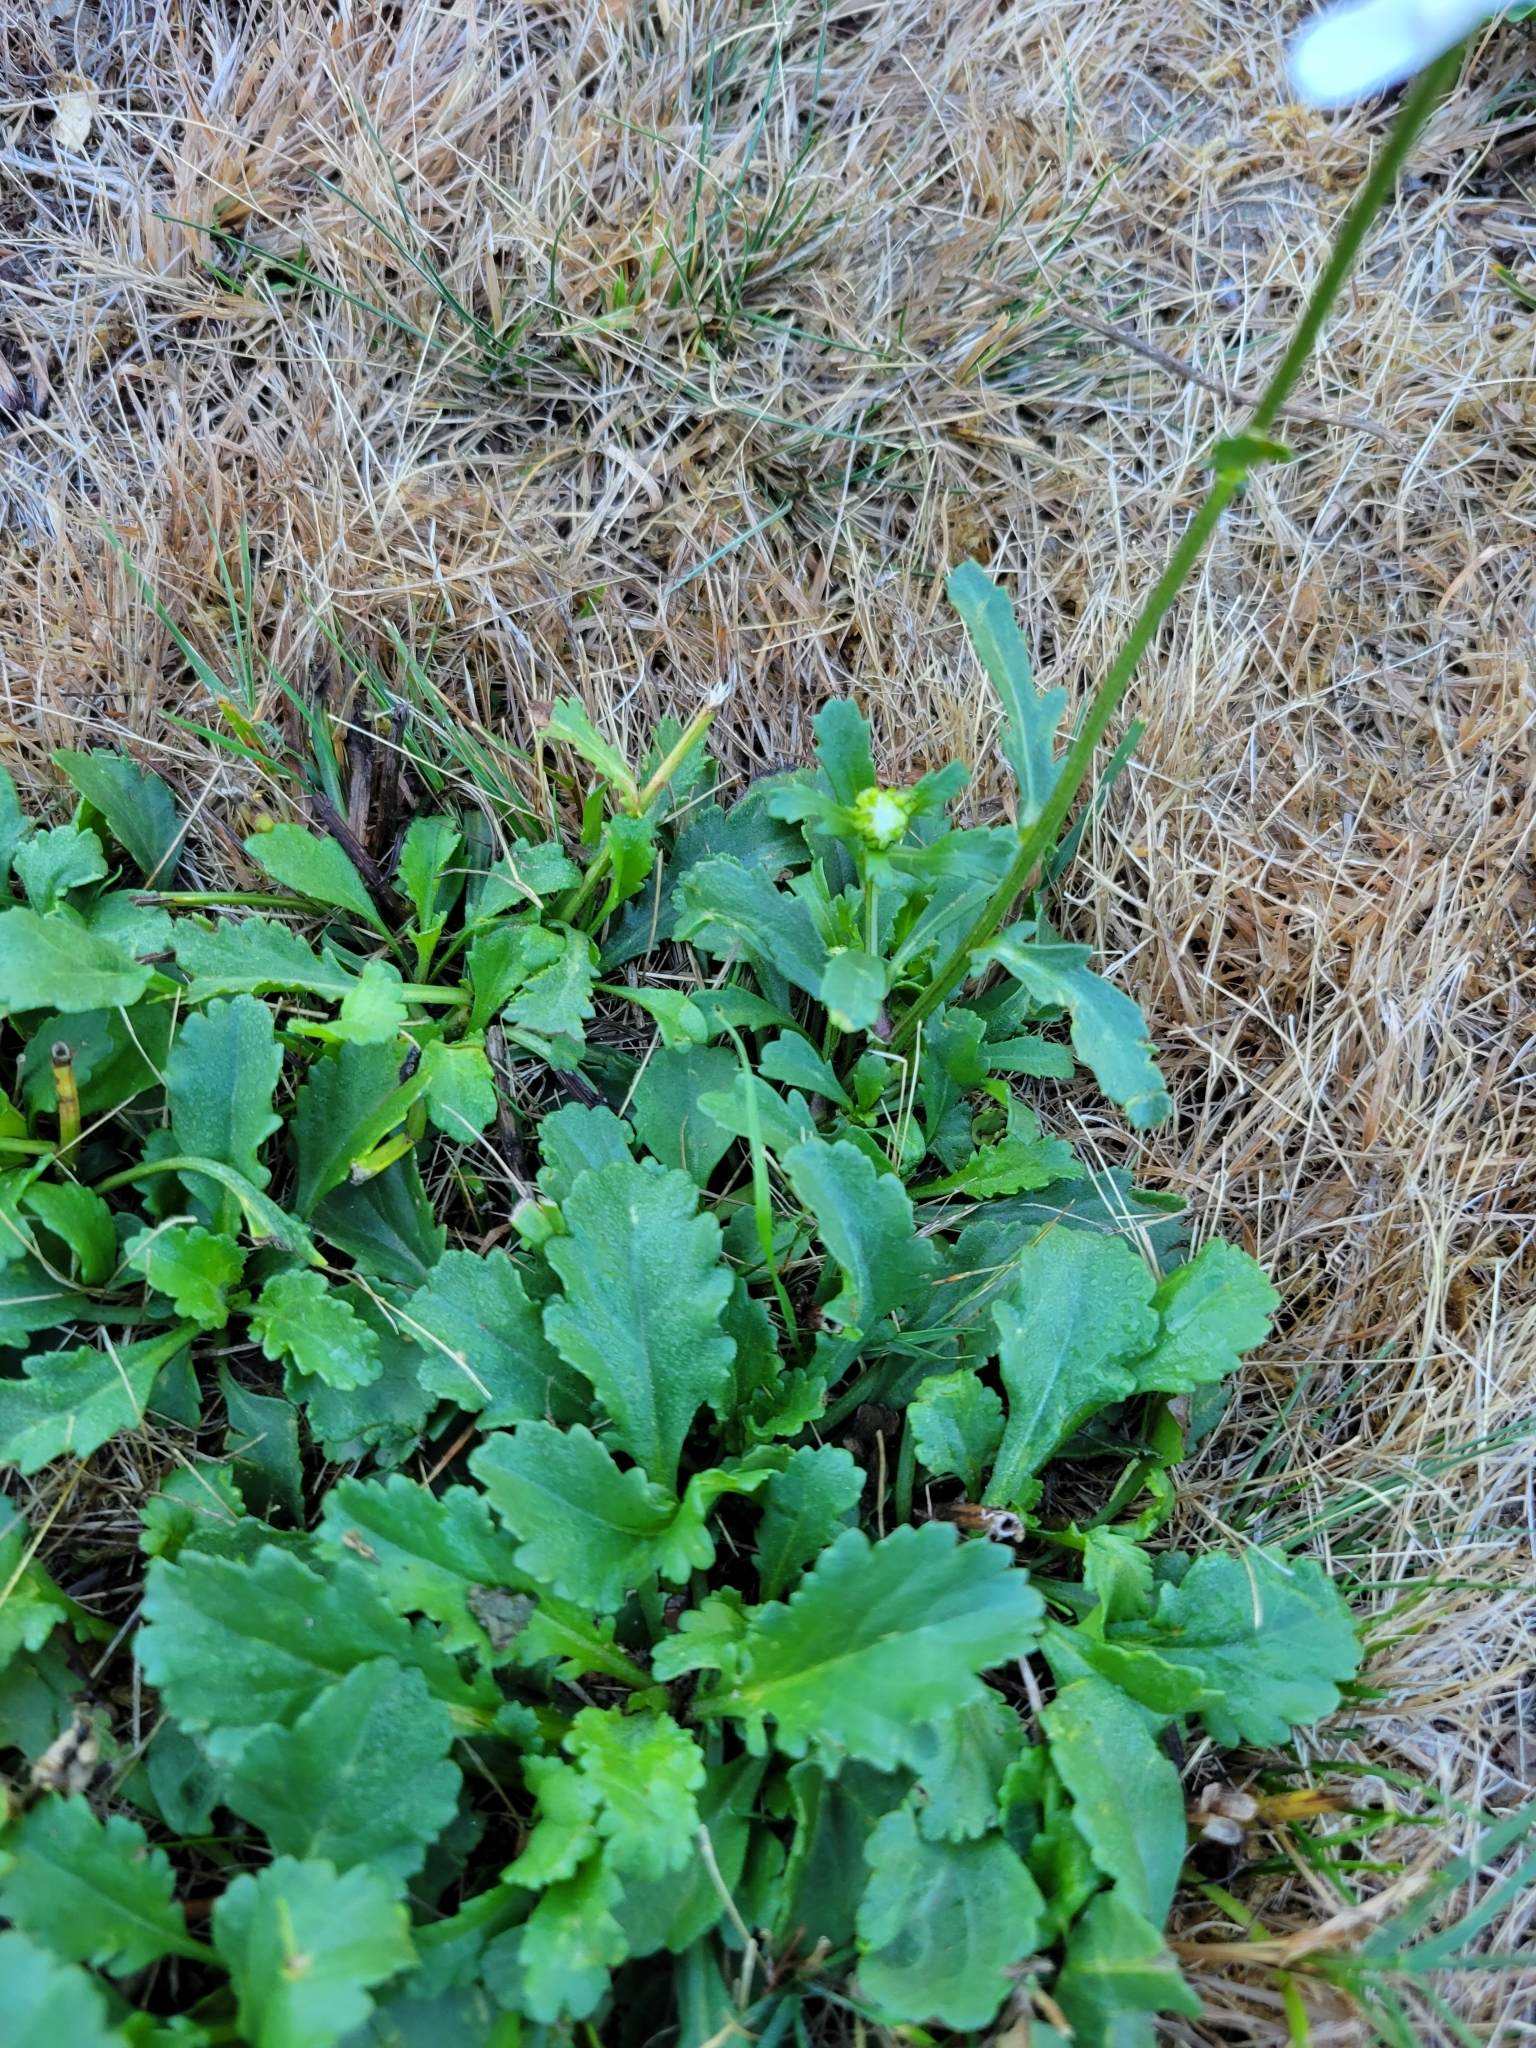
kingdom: Plantae
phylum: Tracheophyta
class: Magnoliopsida
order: Asterales
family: Asteraceae
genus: Leucanthemum
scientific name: Leucanthemum vulgare
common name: Oxeye daisy
